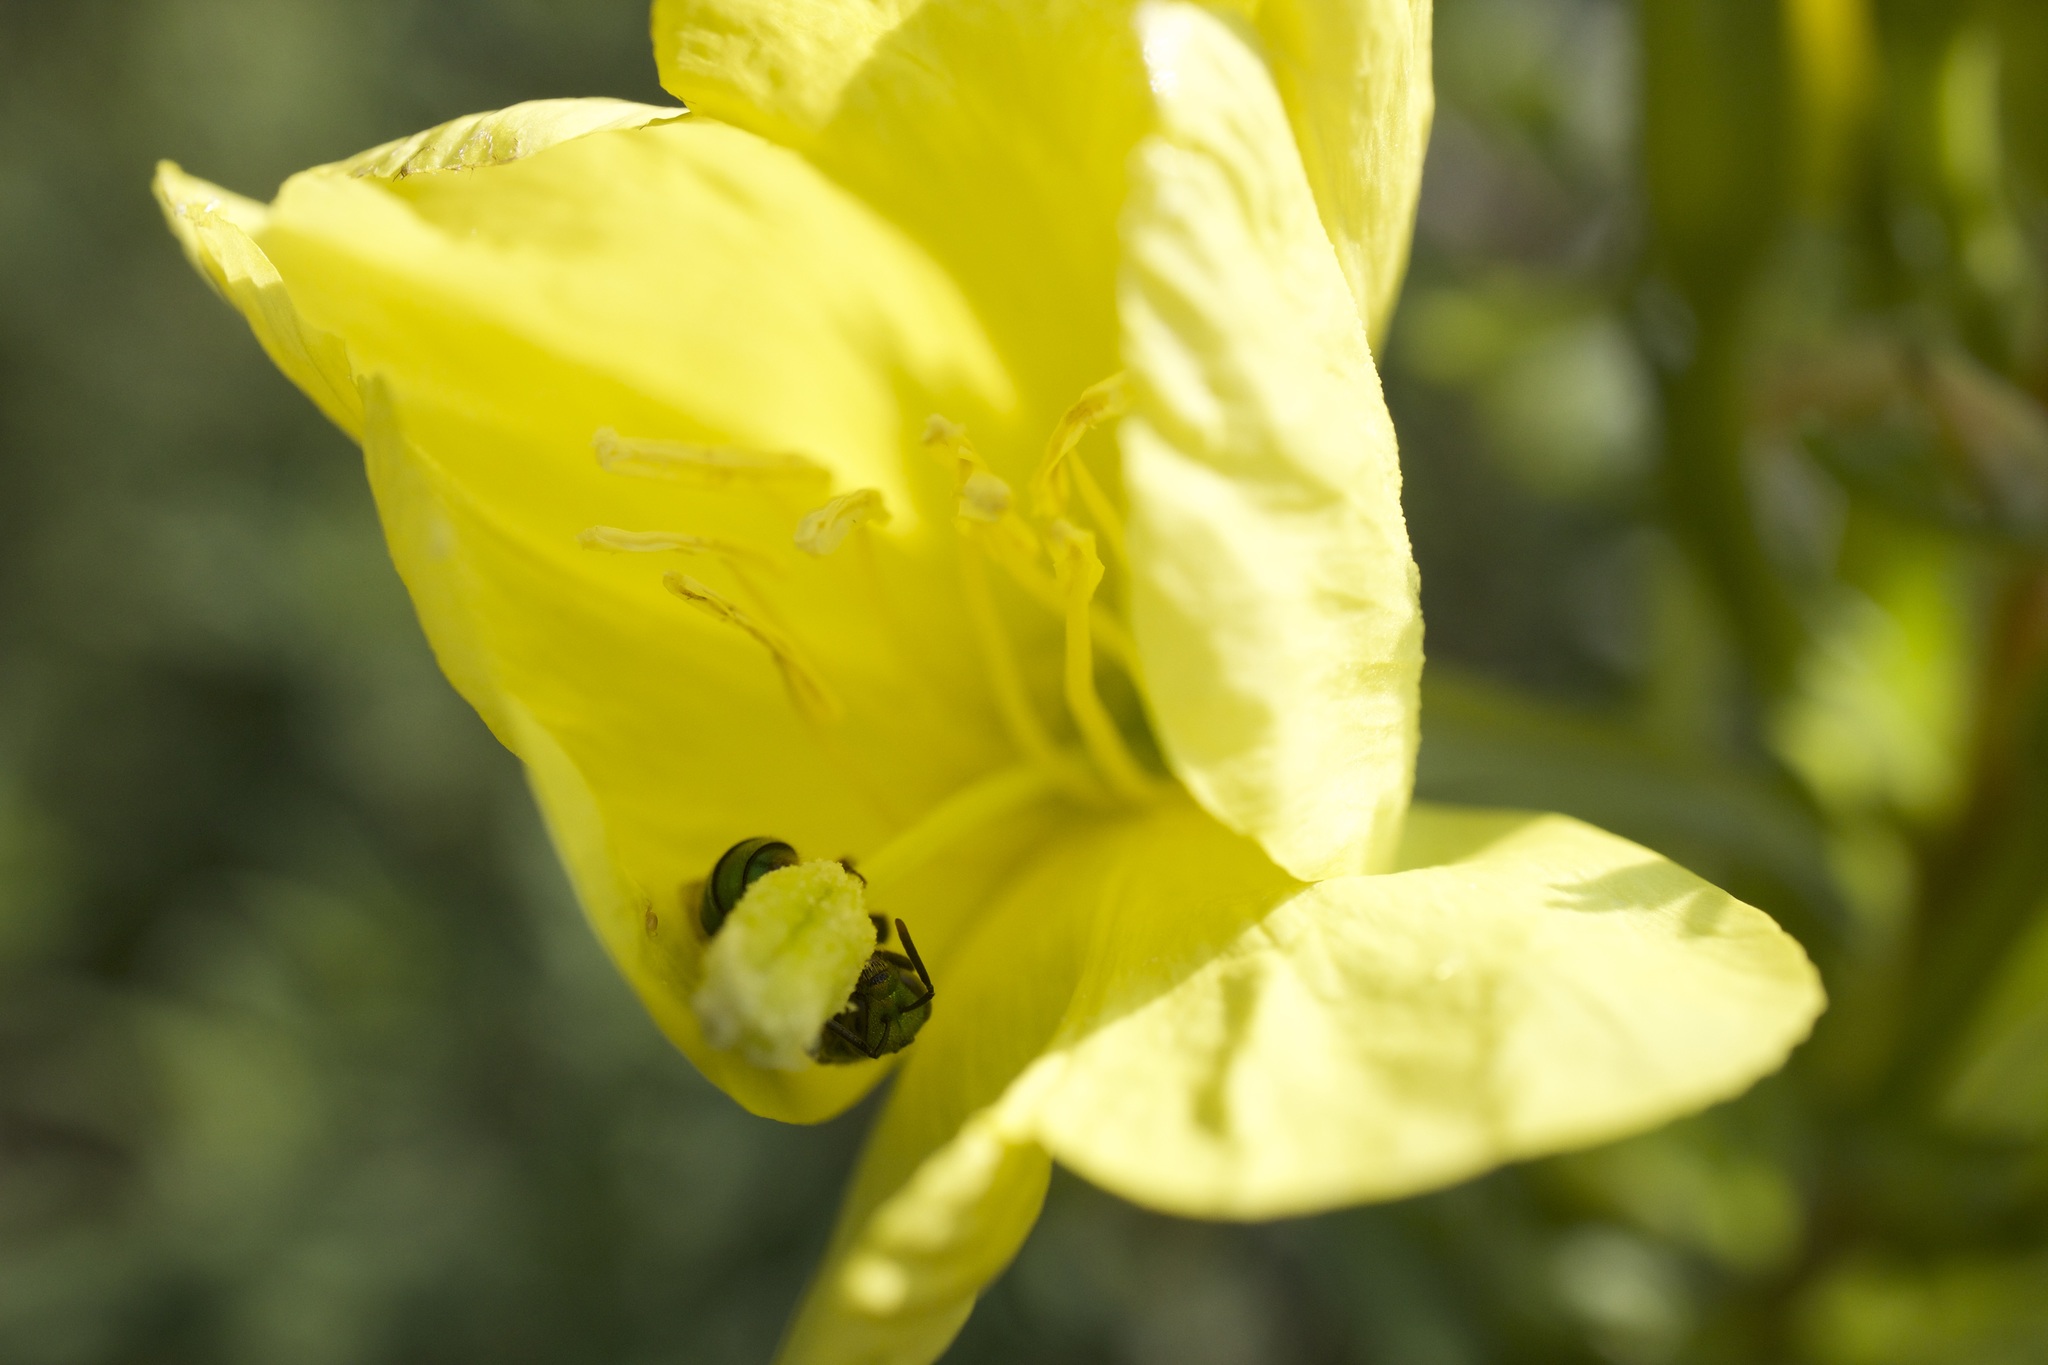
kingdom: Plantae
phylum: Tracheophyta
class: Magnoliopsida
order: Myrtales
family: Onagraceae
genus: Oenothera
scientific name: Oenothera biennis
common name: Common evening-primrose
